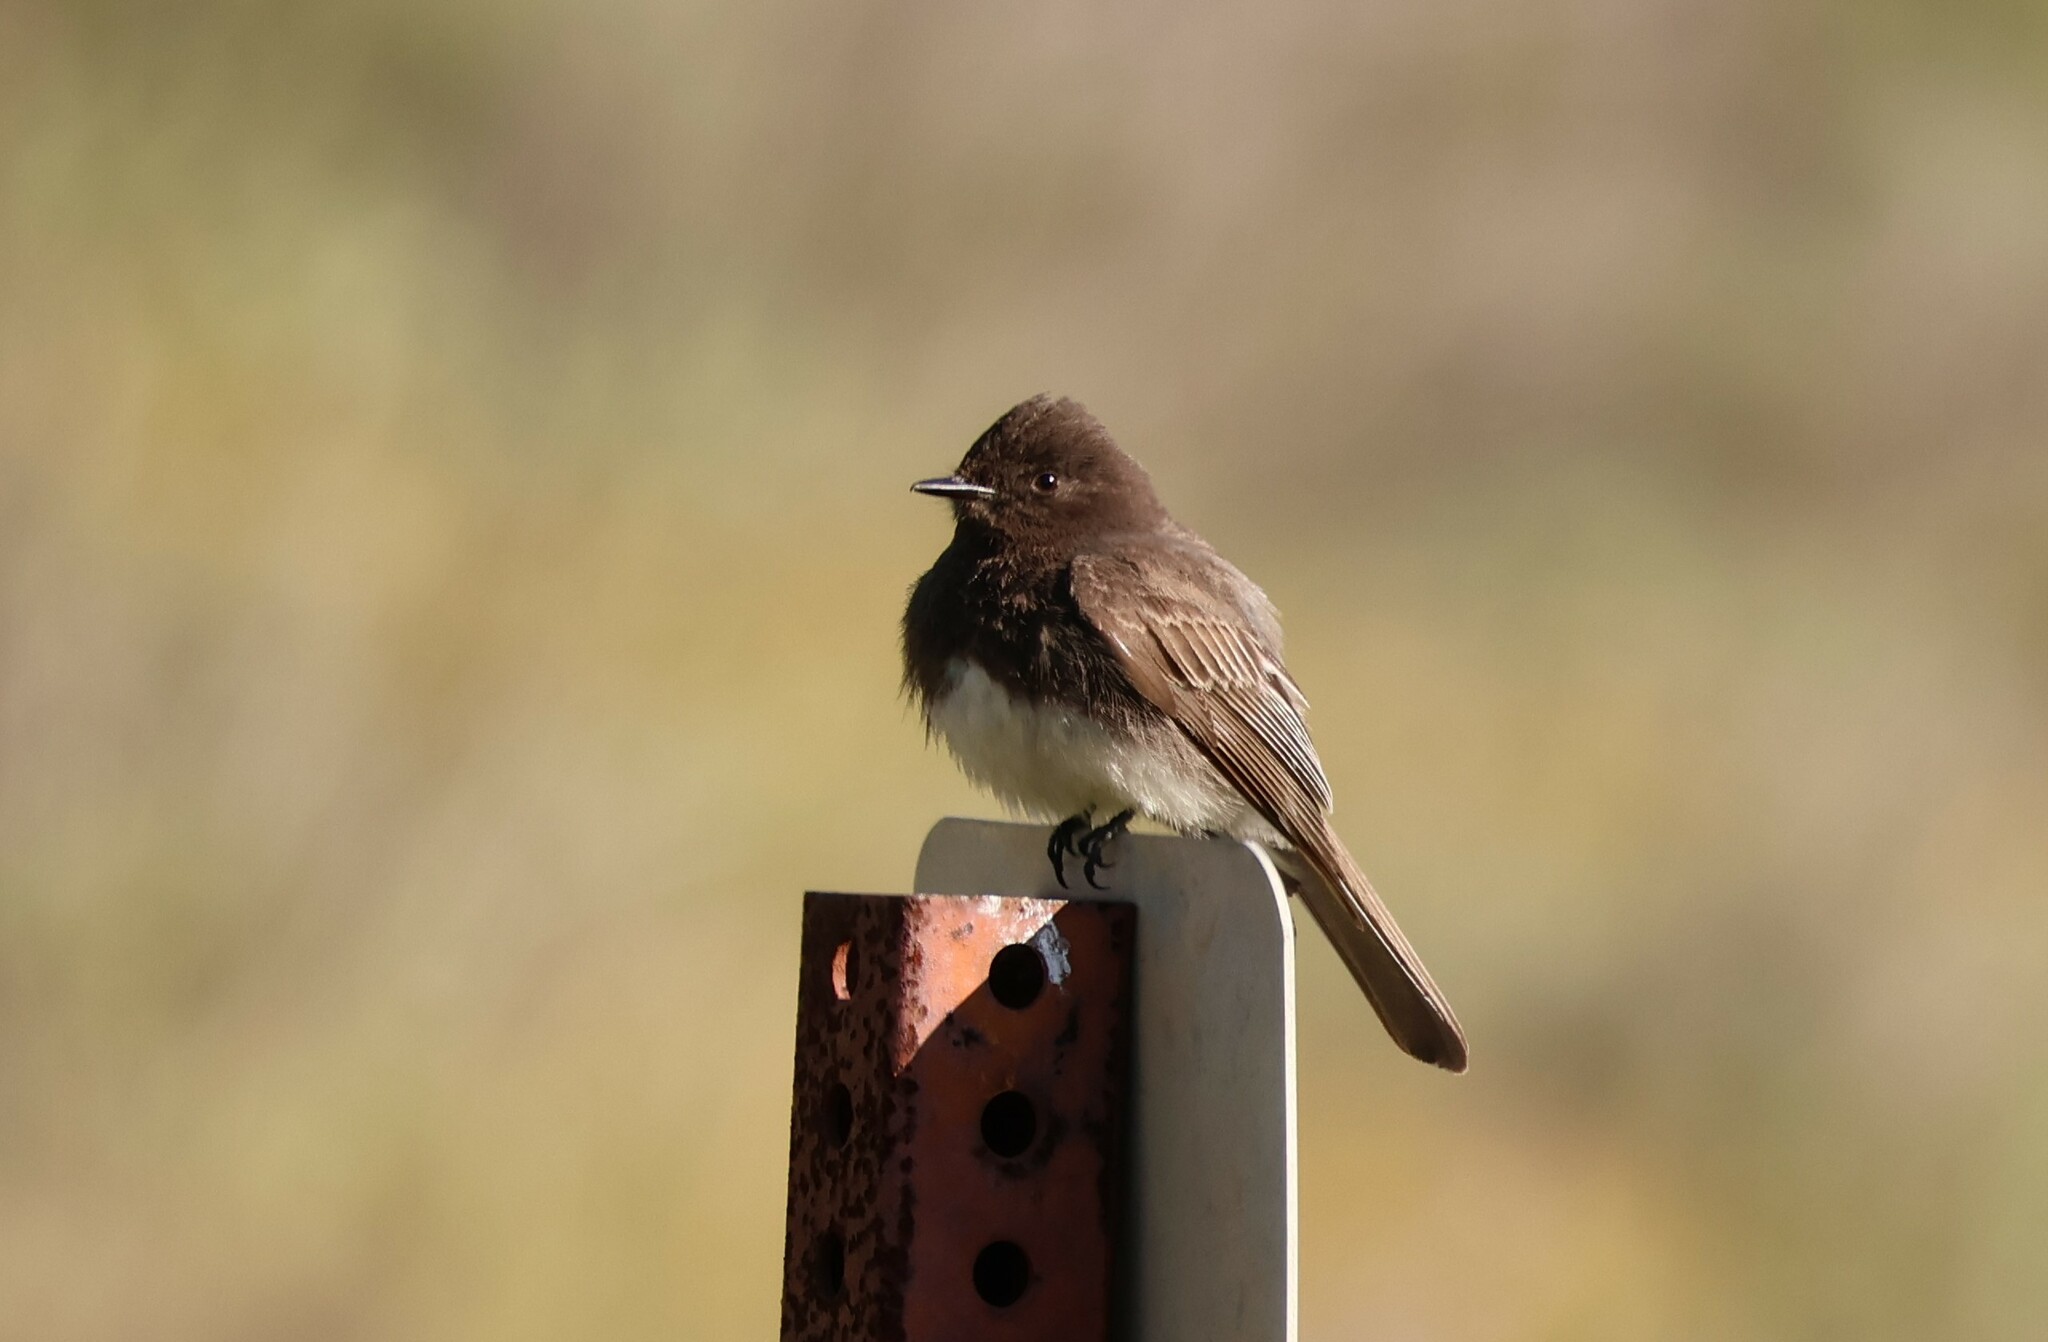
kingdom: Animalia
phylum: Chordata
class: Aves
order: Passeriformes
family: Tyrannidae
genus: Sayornis
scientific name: Sayornis nigricans
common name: Black phoebe
